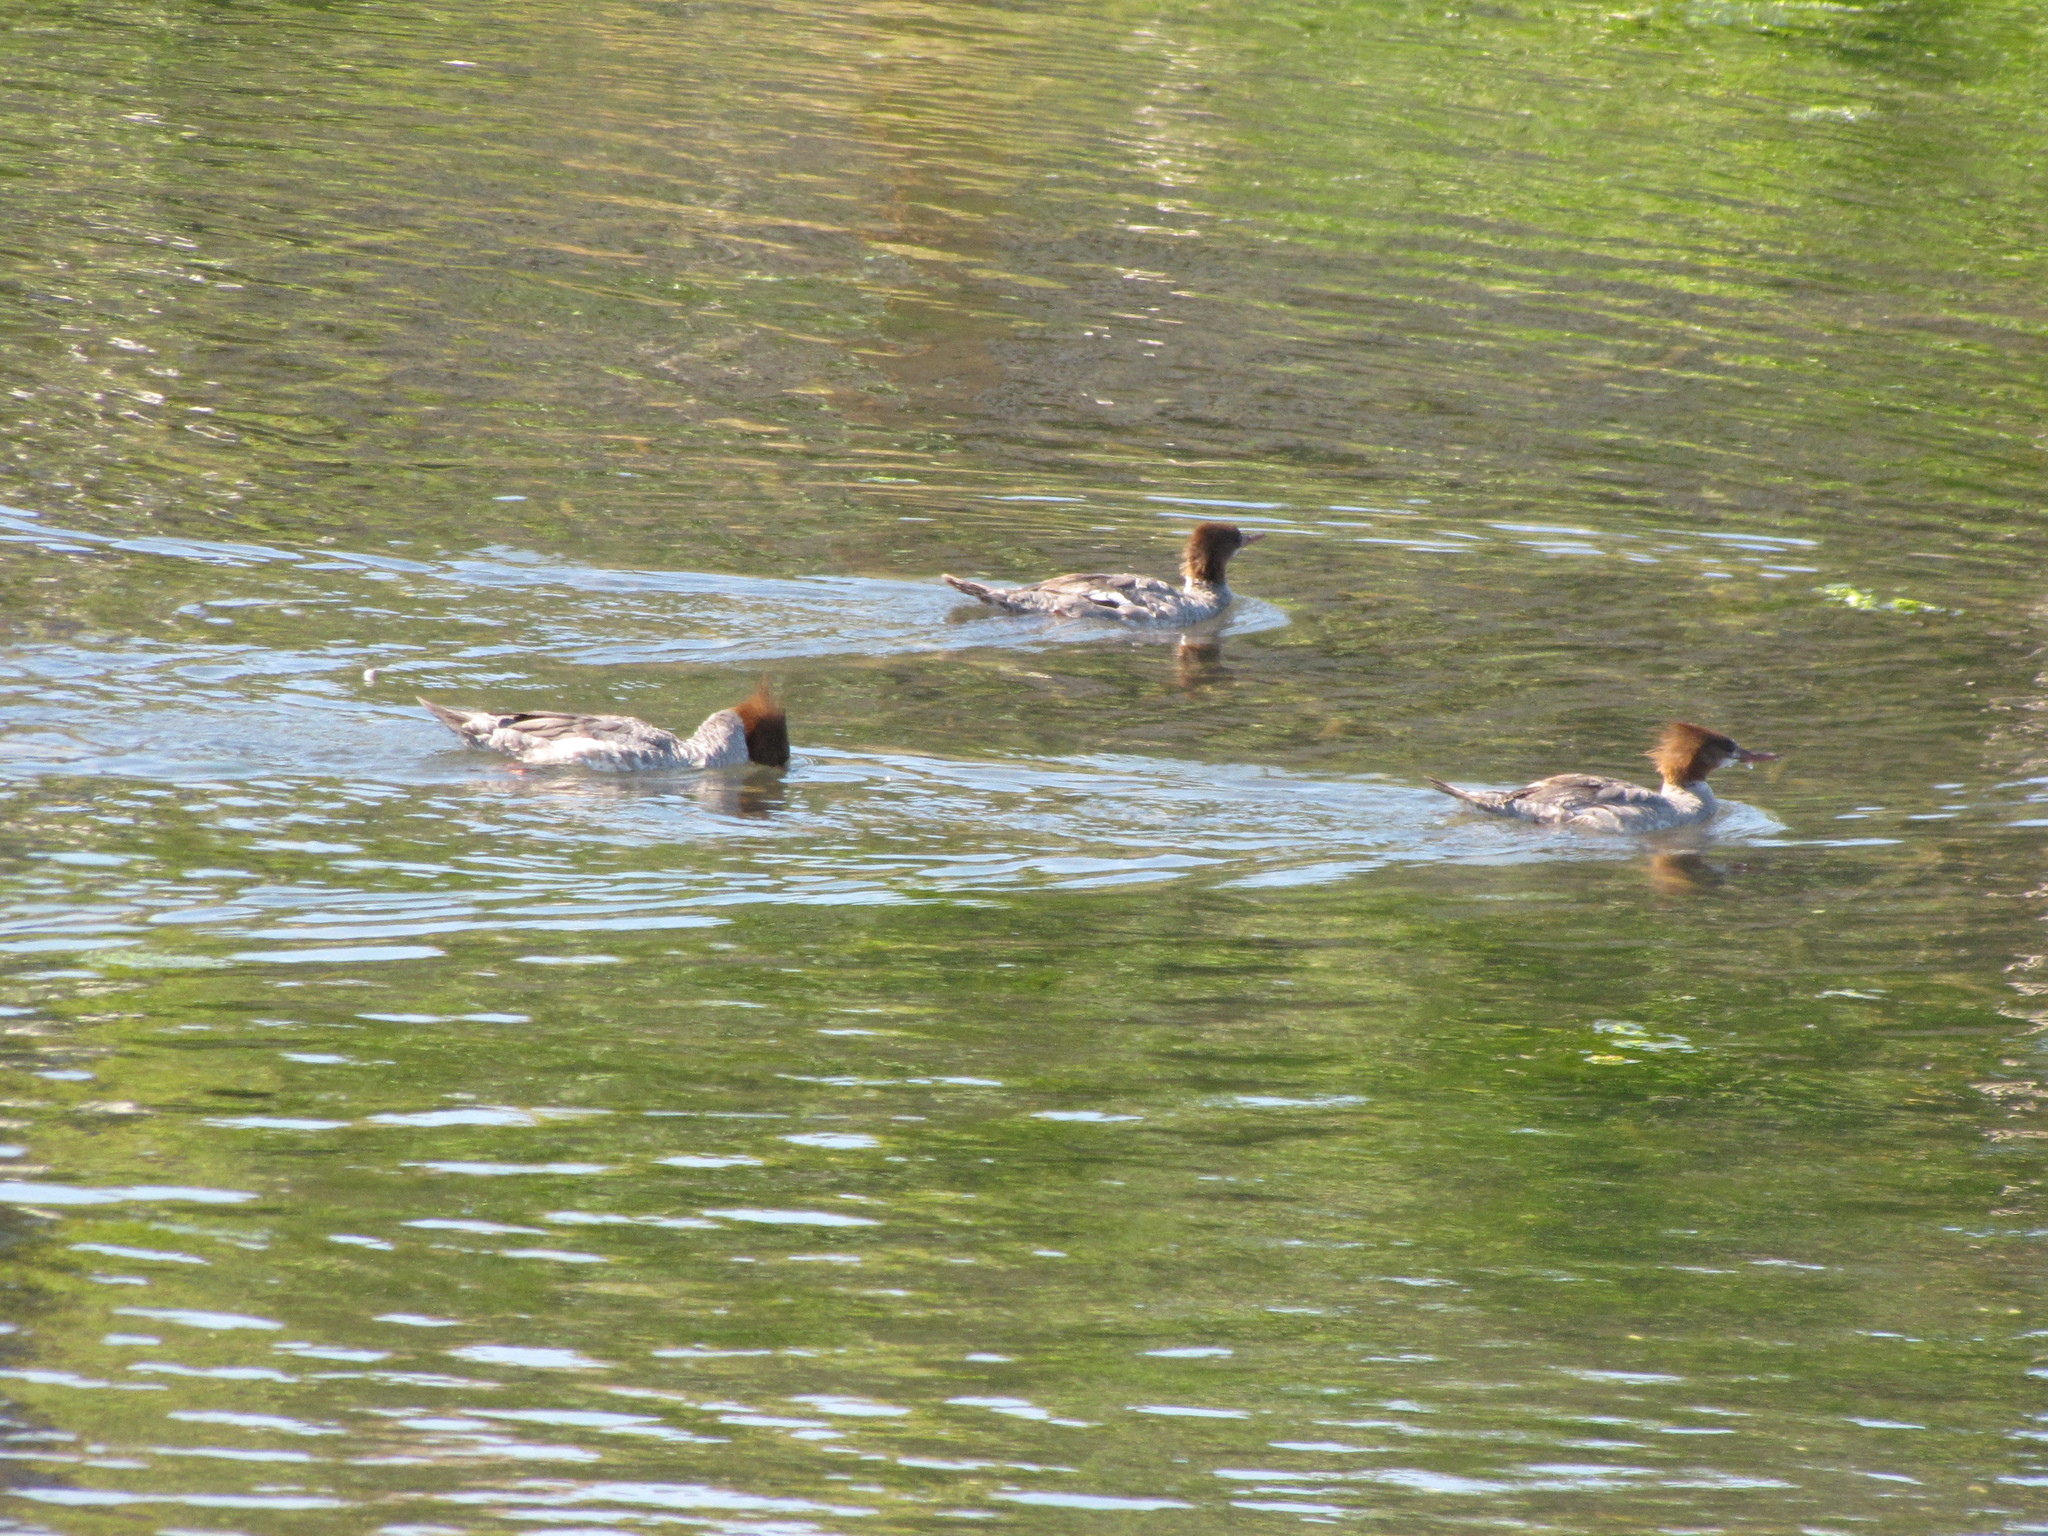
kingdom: Animalia
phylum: Chordata
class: Aves
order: Anseriformes
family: Anatidae
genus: Mergus
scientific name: Mergus merganser
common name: Common merganser
